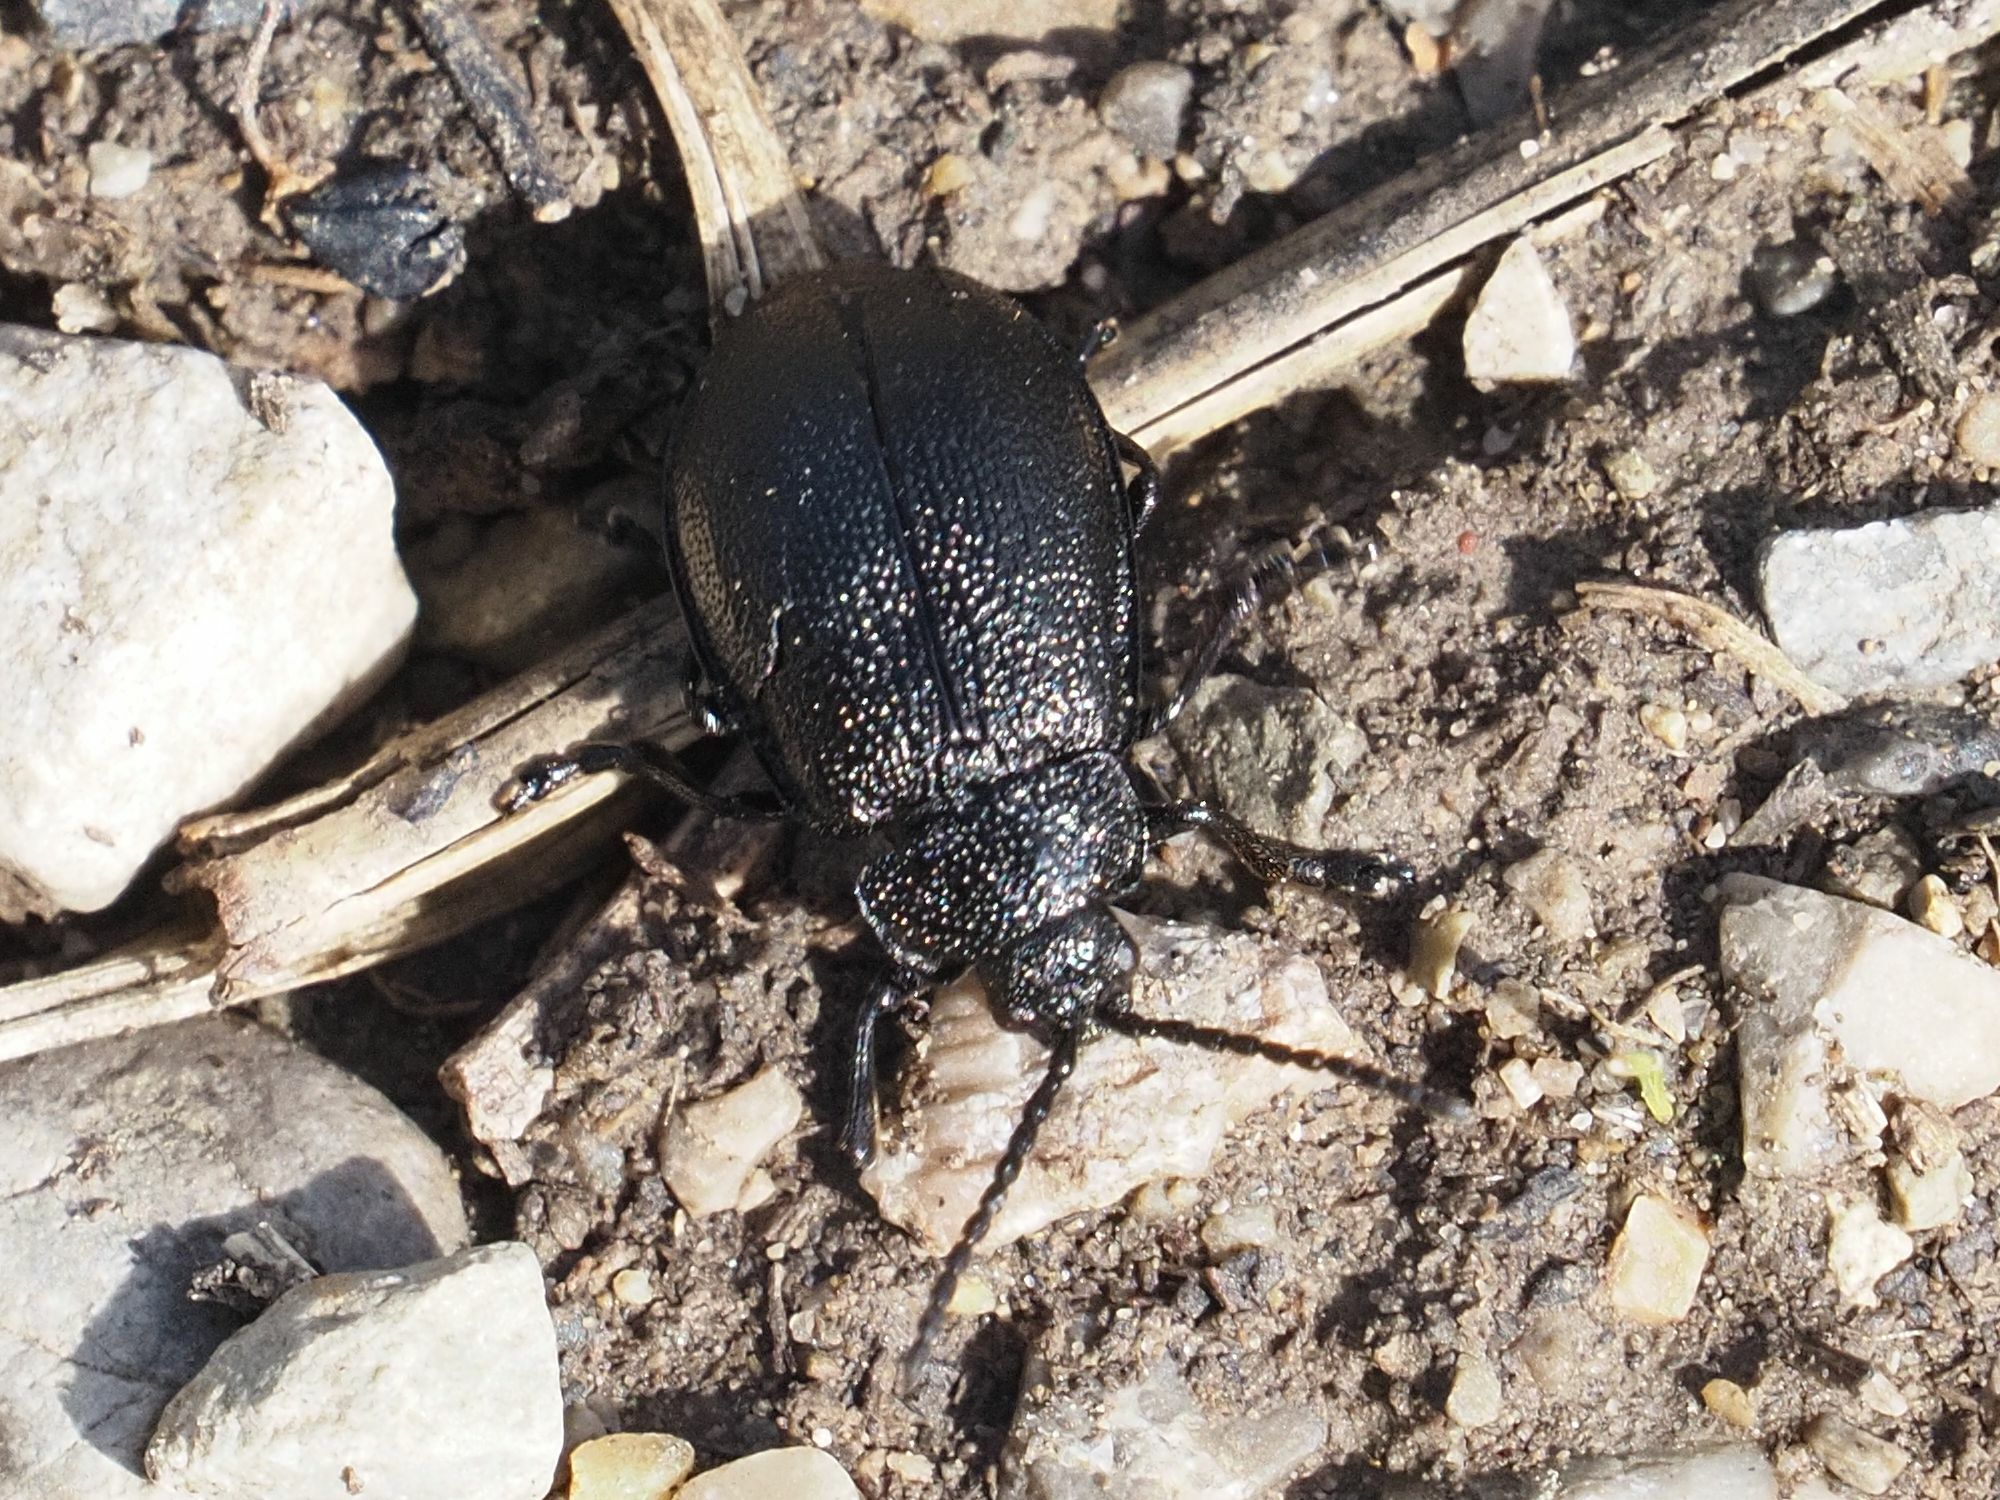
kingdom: Animalia
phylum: Arthropoda
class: Insecta
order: Coleoptera
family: Chrysomelidae
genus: Galeruca
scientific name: Galeruca tanaceti
